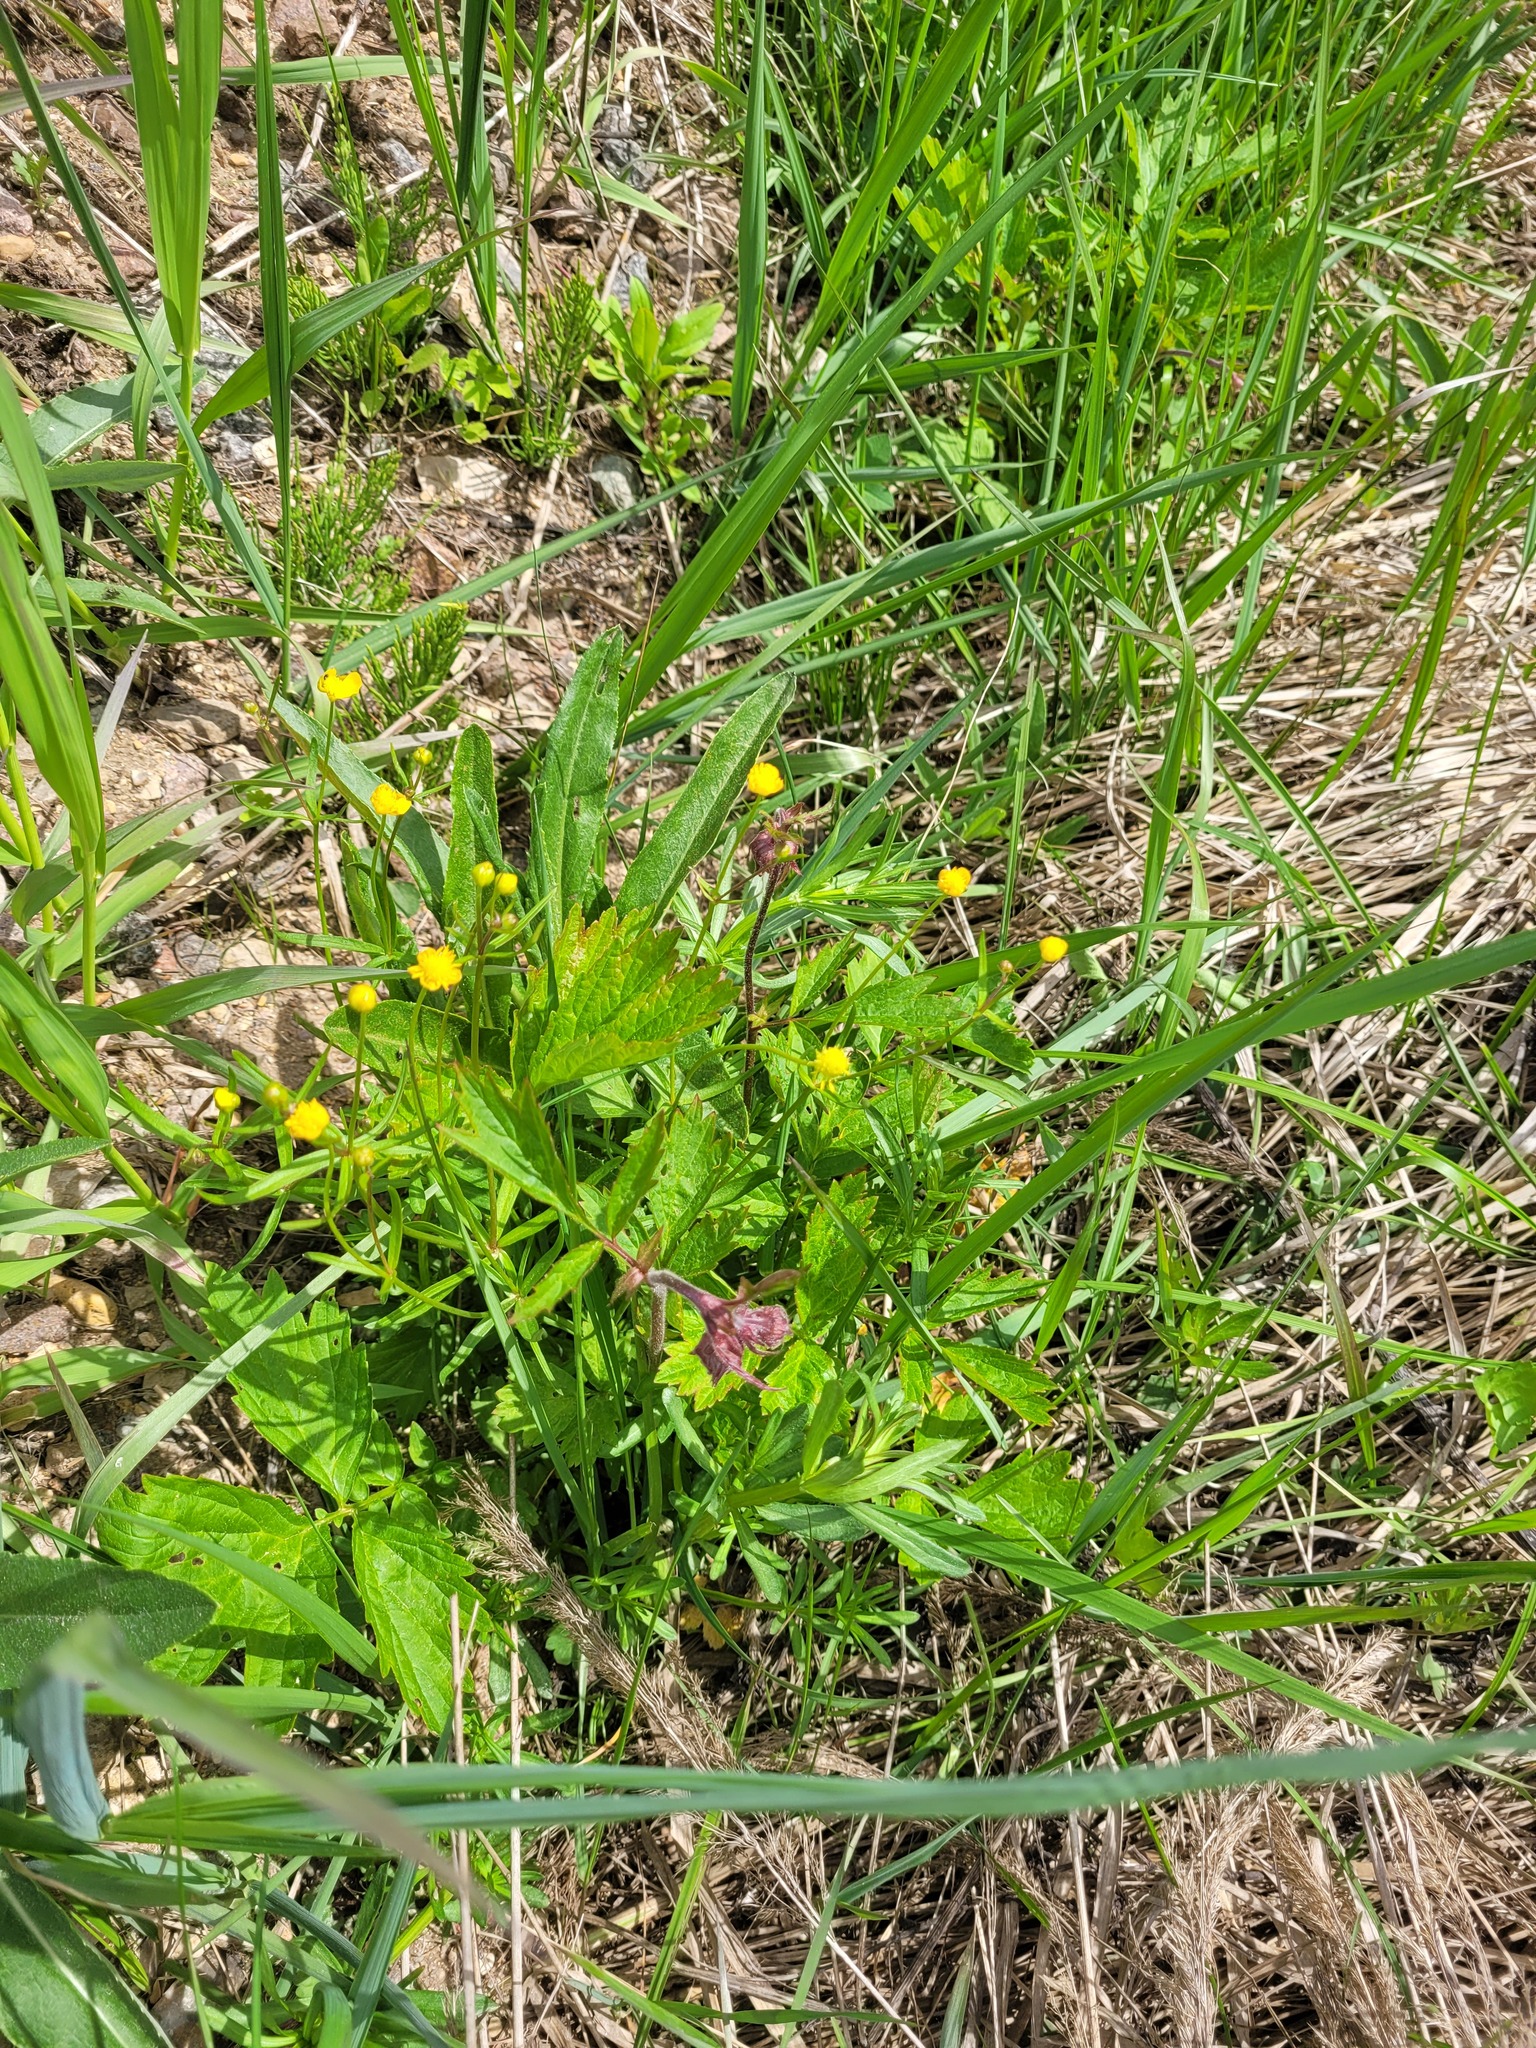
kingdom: Plantae
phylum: Tracheophyta
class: Magnoliopsida
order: Rosales
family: Rosaceae
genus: Geum
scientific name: Geum rivale
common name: Water avens
